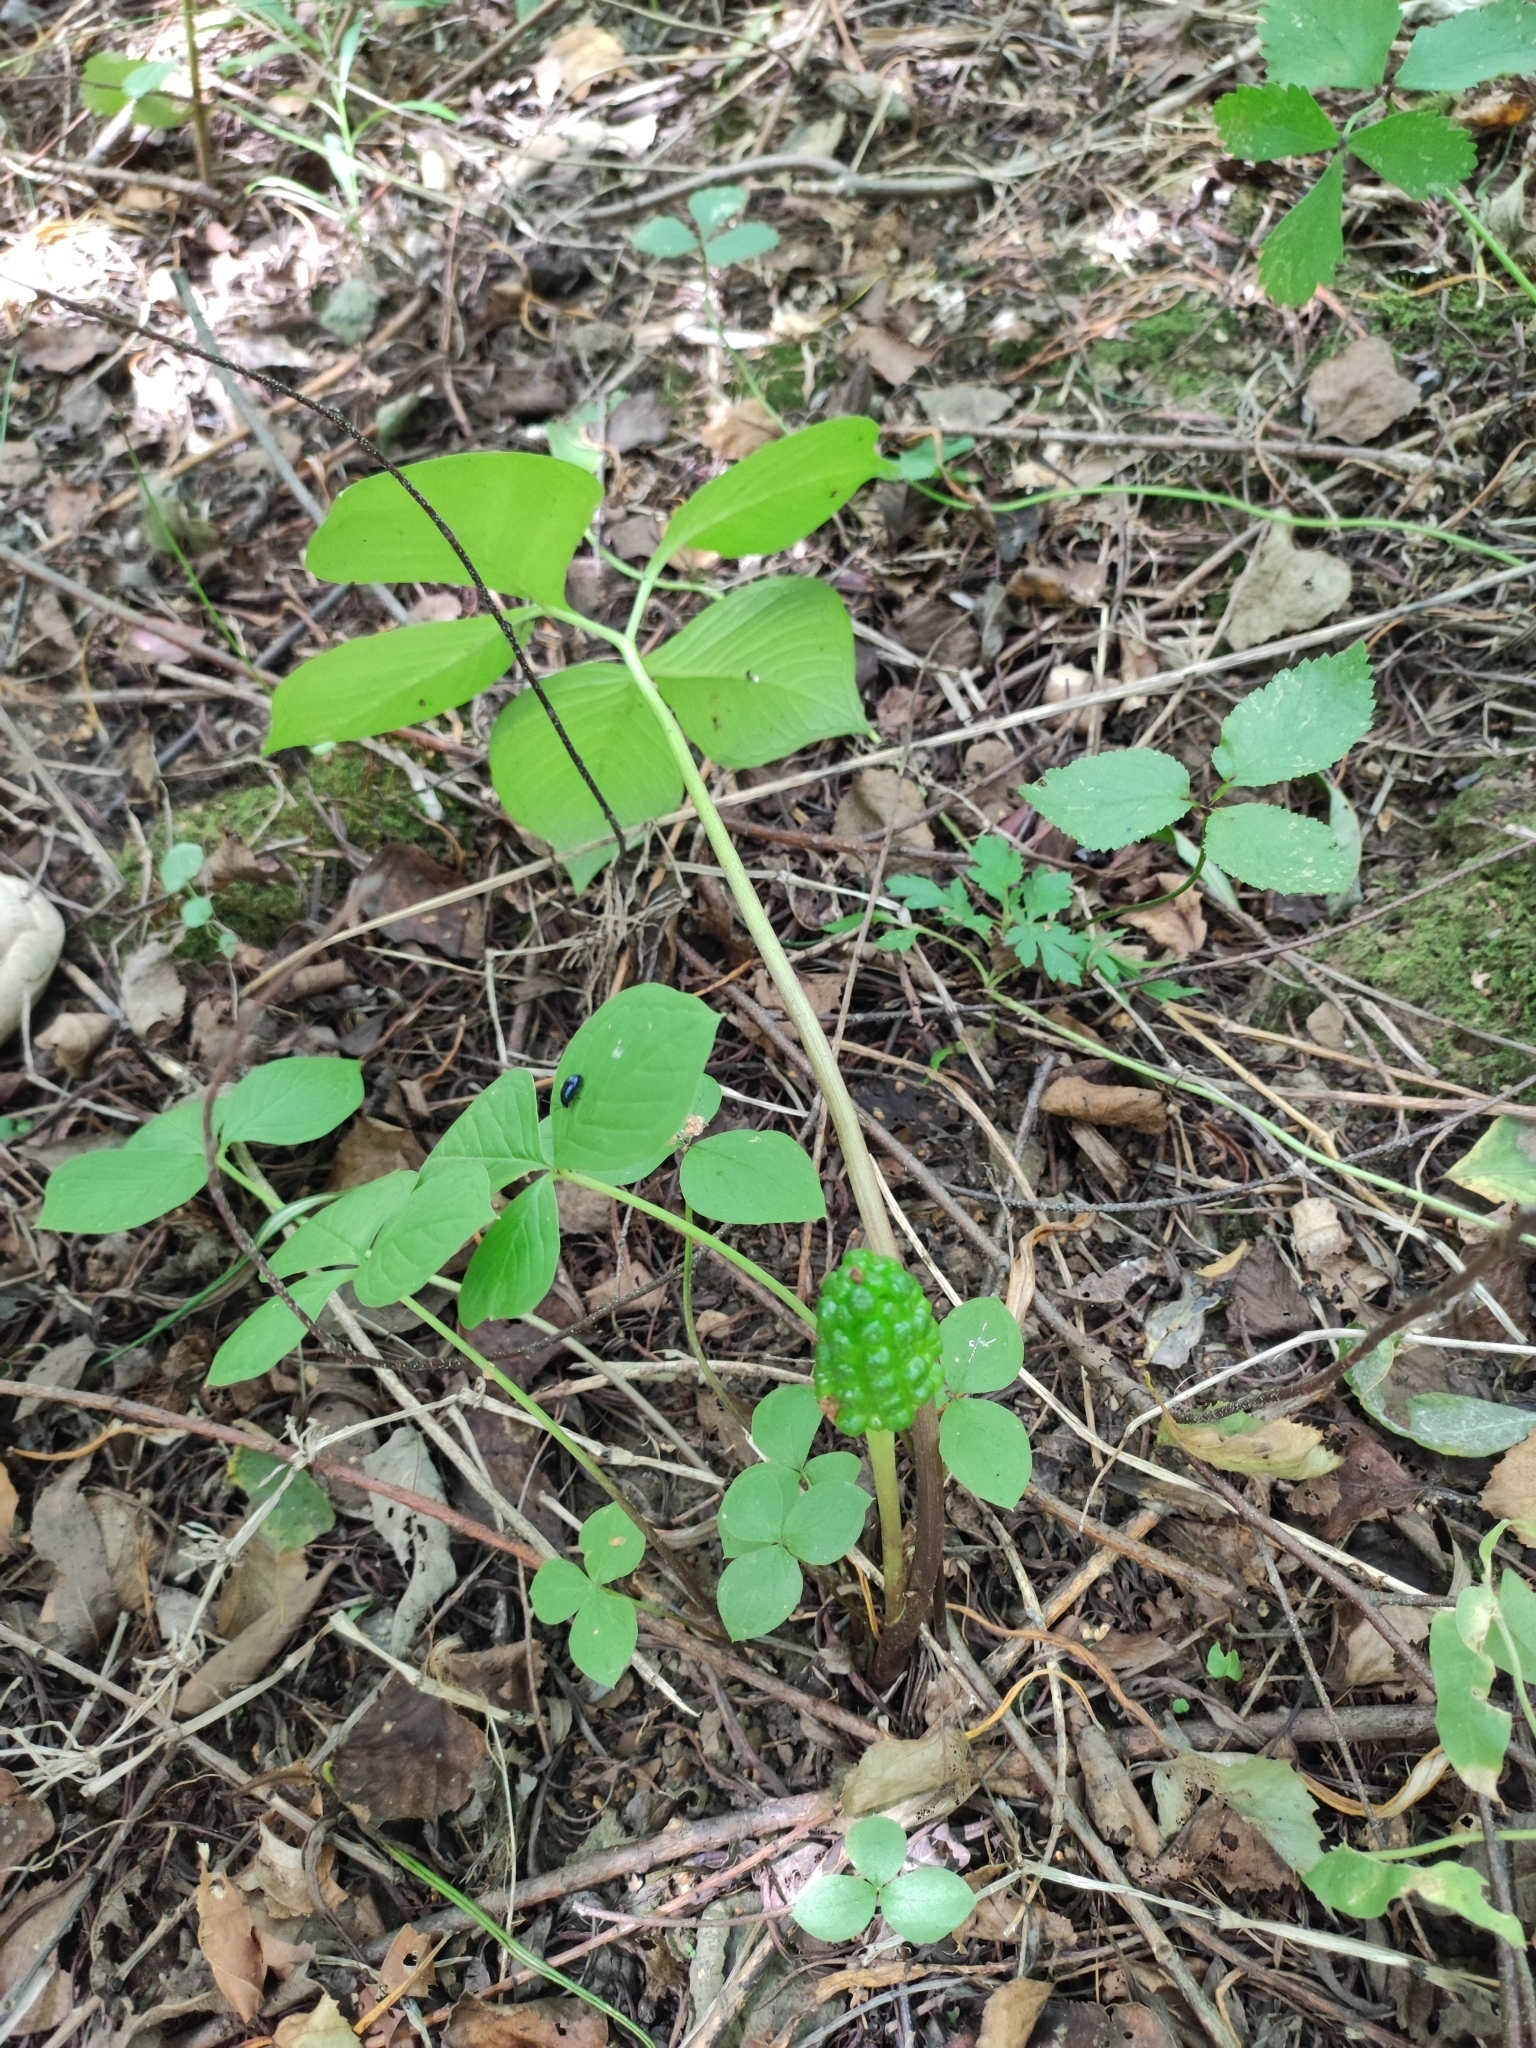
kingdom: Plantae
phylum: Tracheophyta
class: Liliopsida
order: Alismatales
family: Araceae
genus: Arisaema
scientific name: Arisaema amurense
